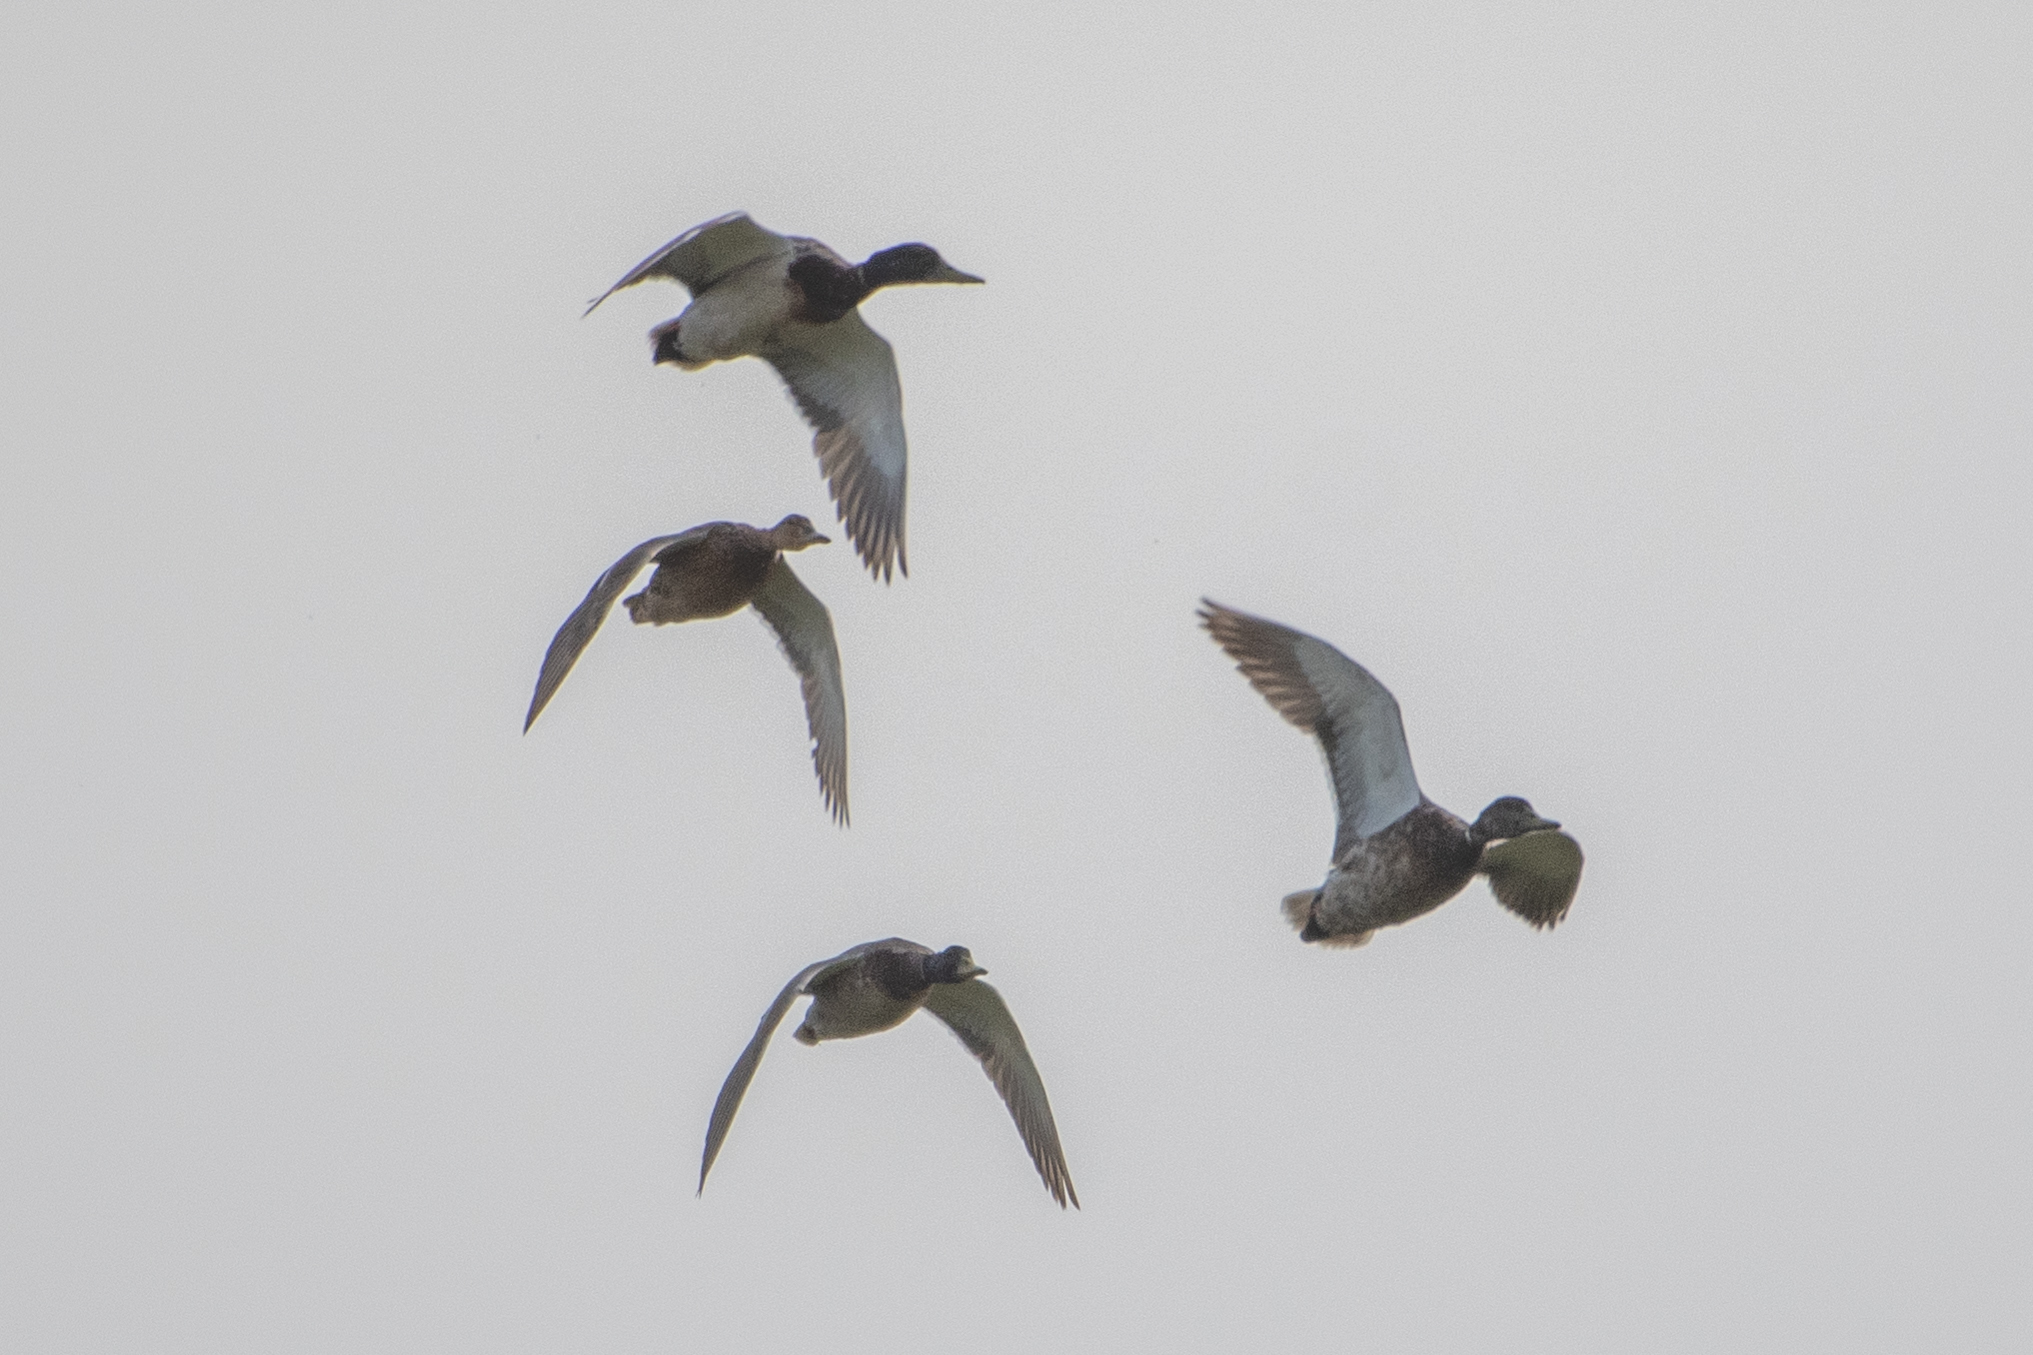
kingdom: Animalia
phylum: Chordata
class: Aves
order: Anseriformes
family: Anatidae
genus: Anas
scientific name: Anas platyrhynchos
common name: Mallard
